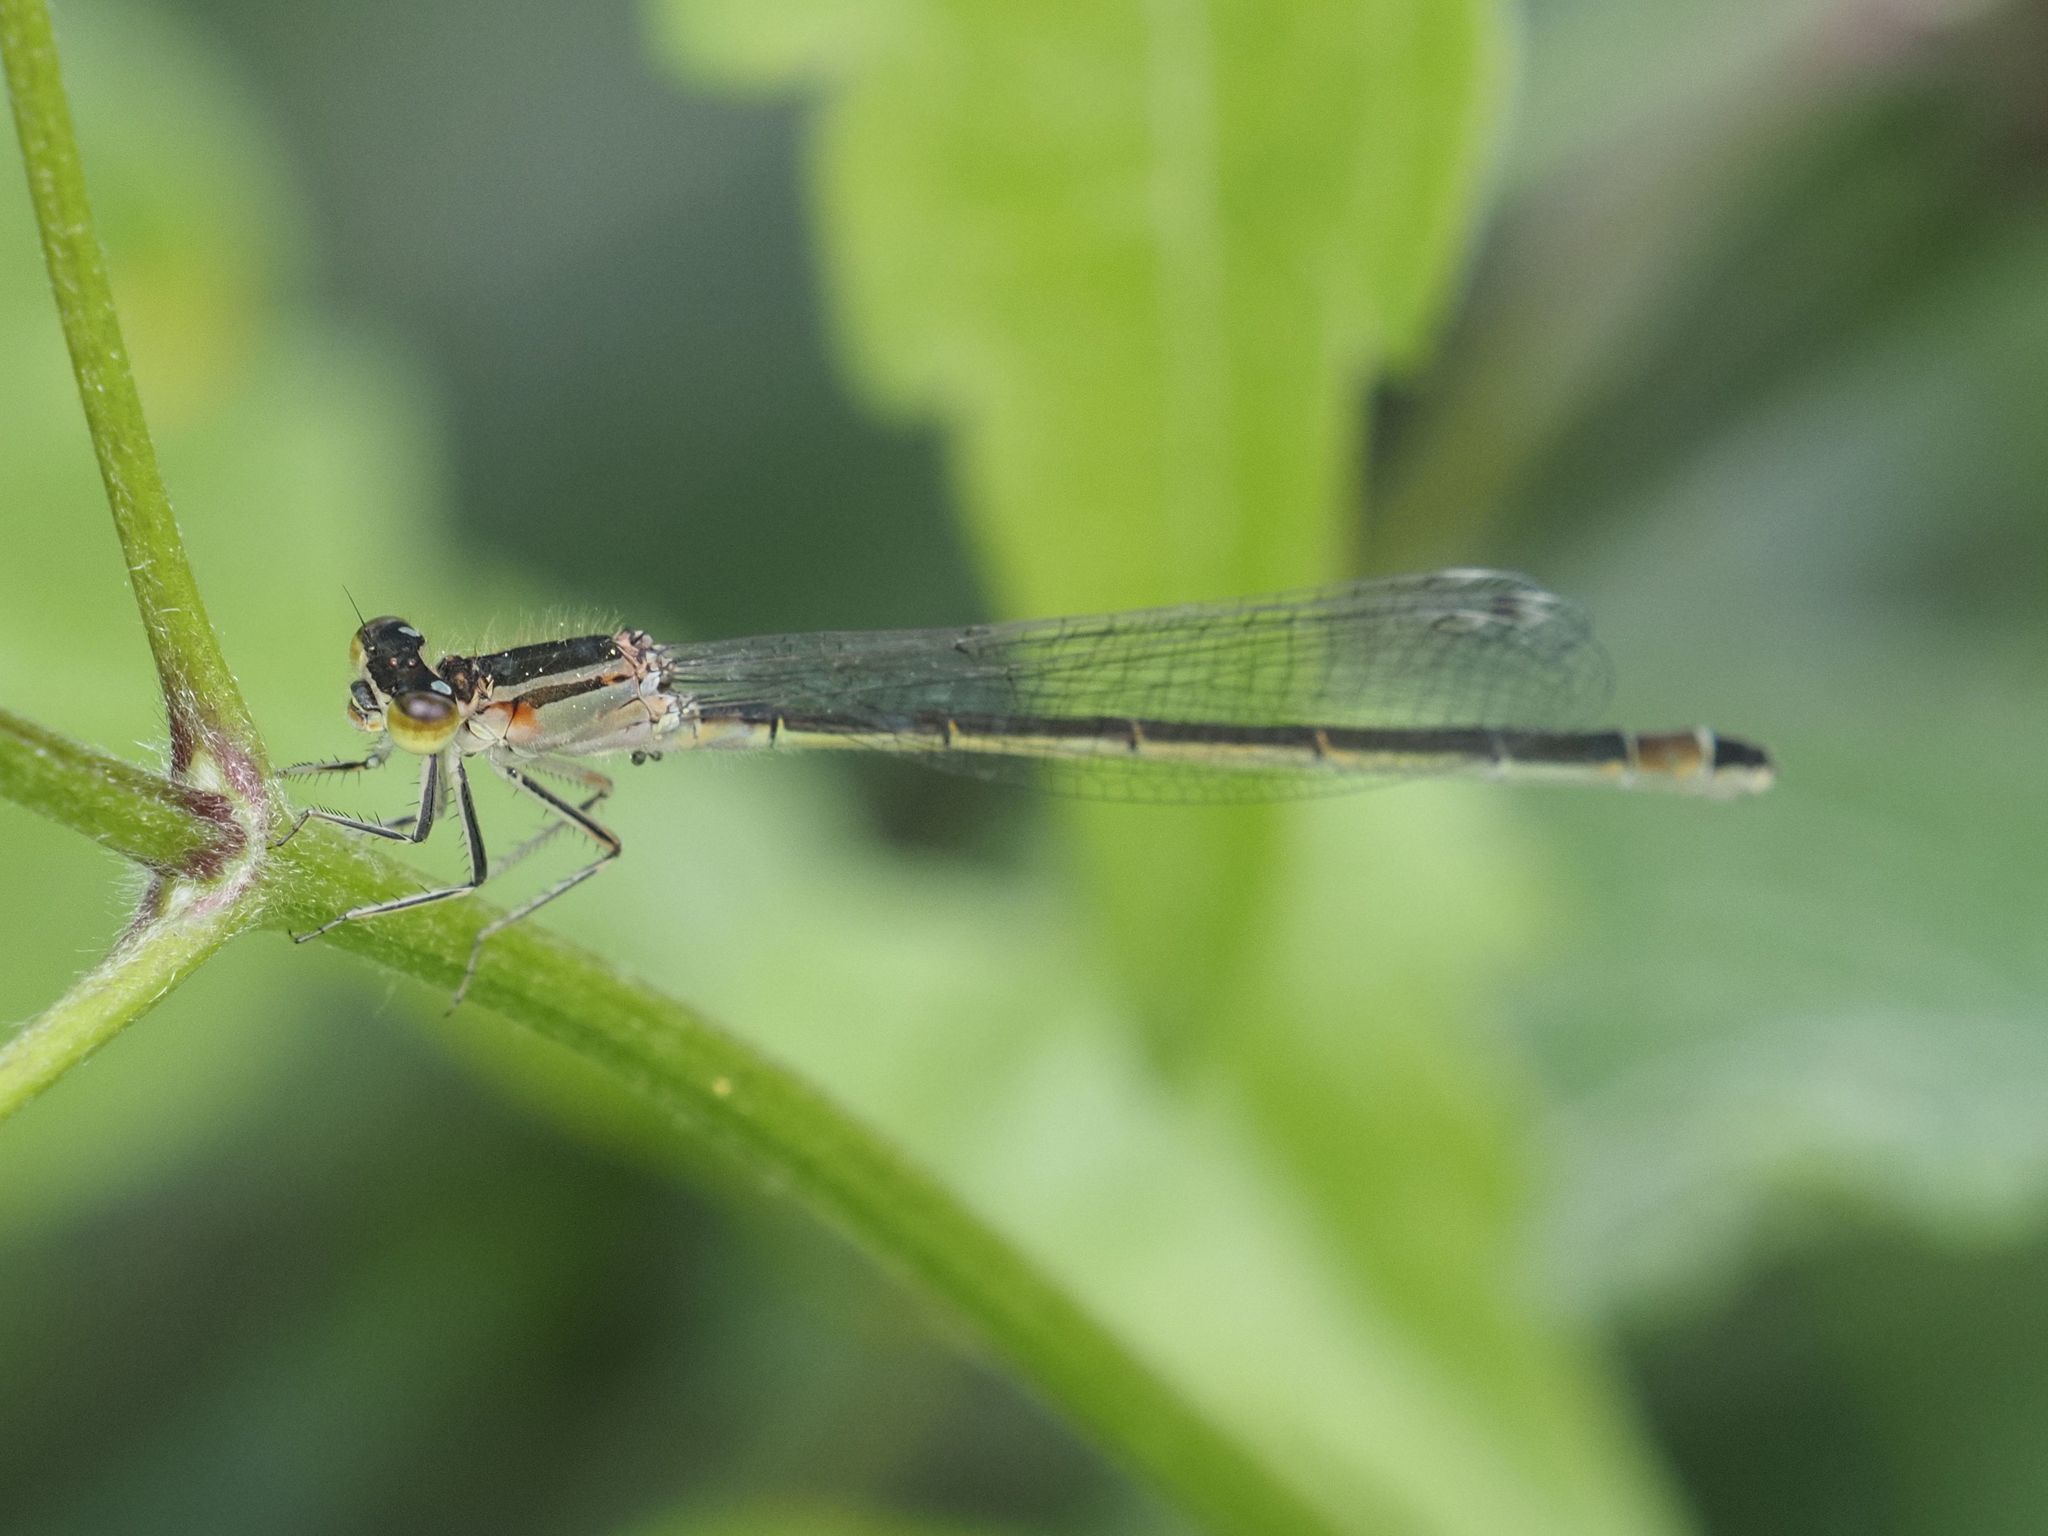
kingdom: Animalia
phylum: Arthropoda
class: Insecta
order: Odonata
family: Coenagrionidae
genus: Ischnura
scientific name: Ischnura elegans
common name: Blue-tailed damselfly
